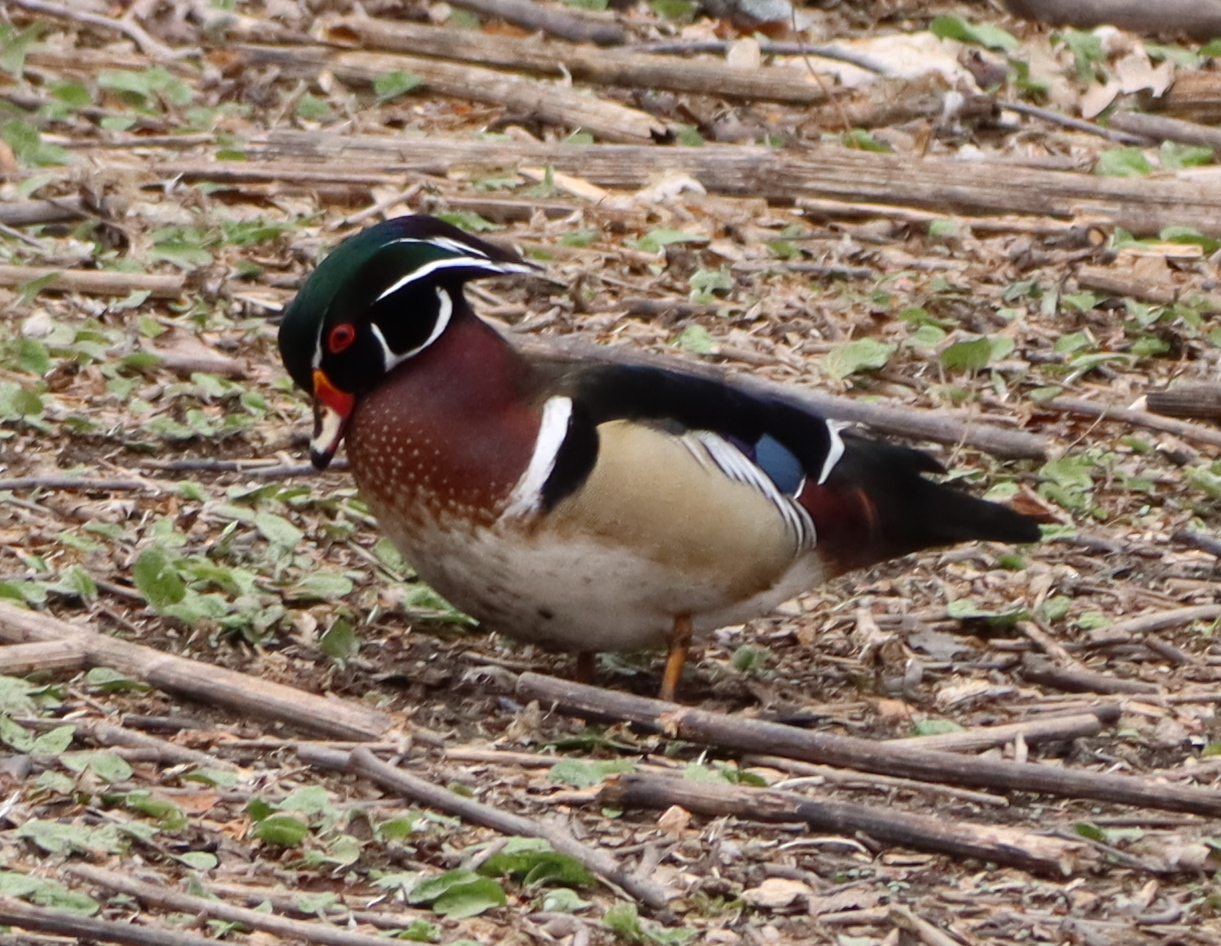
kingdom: Animalia
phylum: Chordata
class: Aves
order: Anseriformes
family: Anatidae
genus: Aix
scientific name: Aix sponsa
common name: Wood duck
